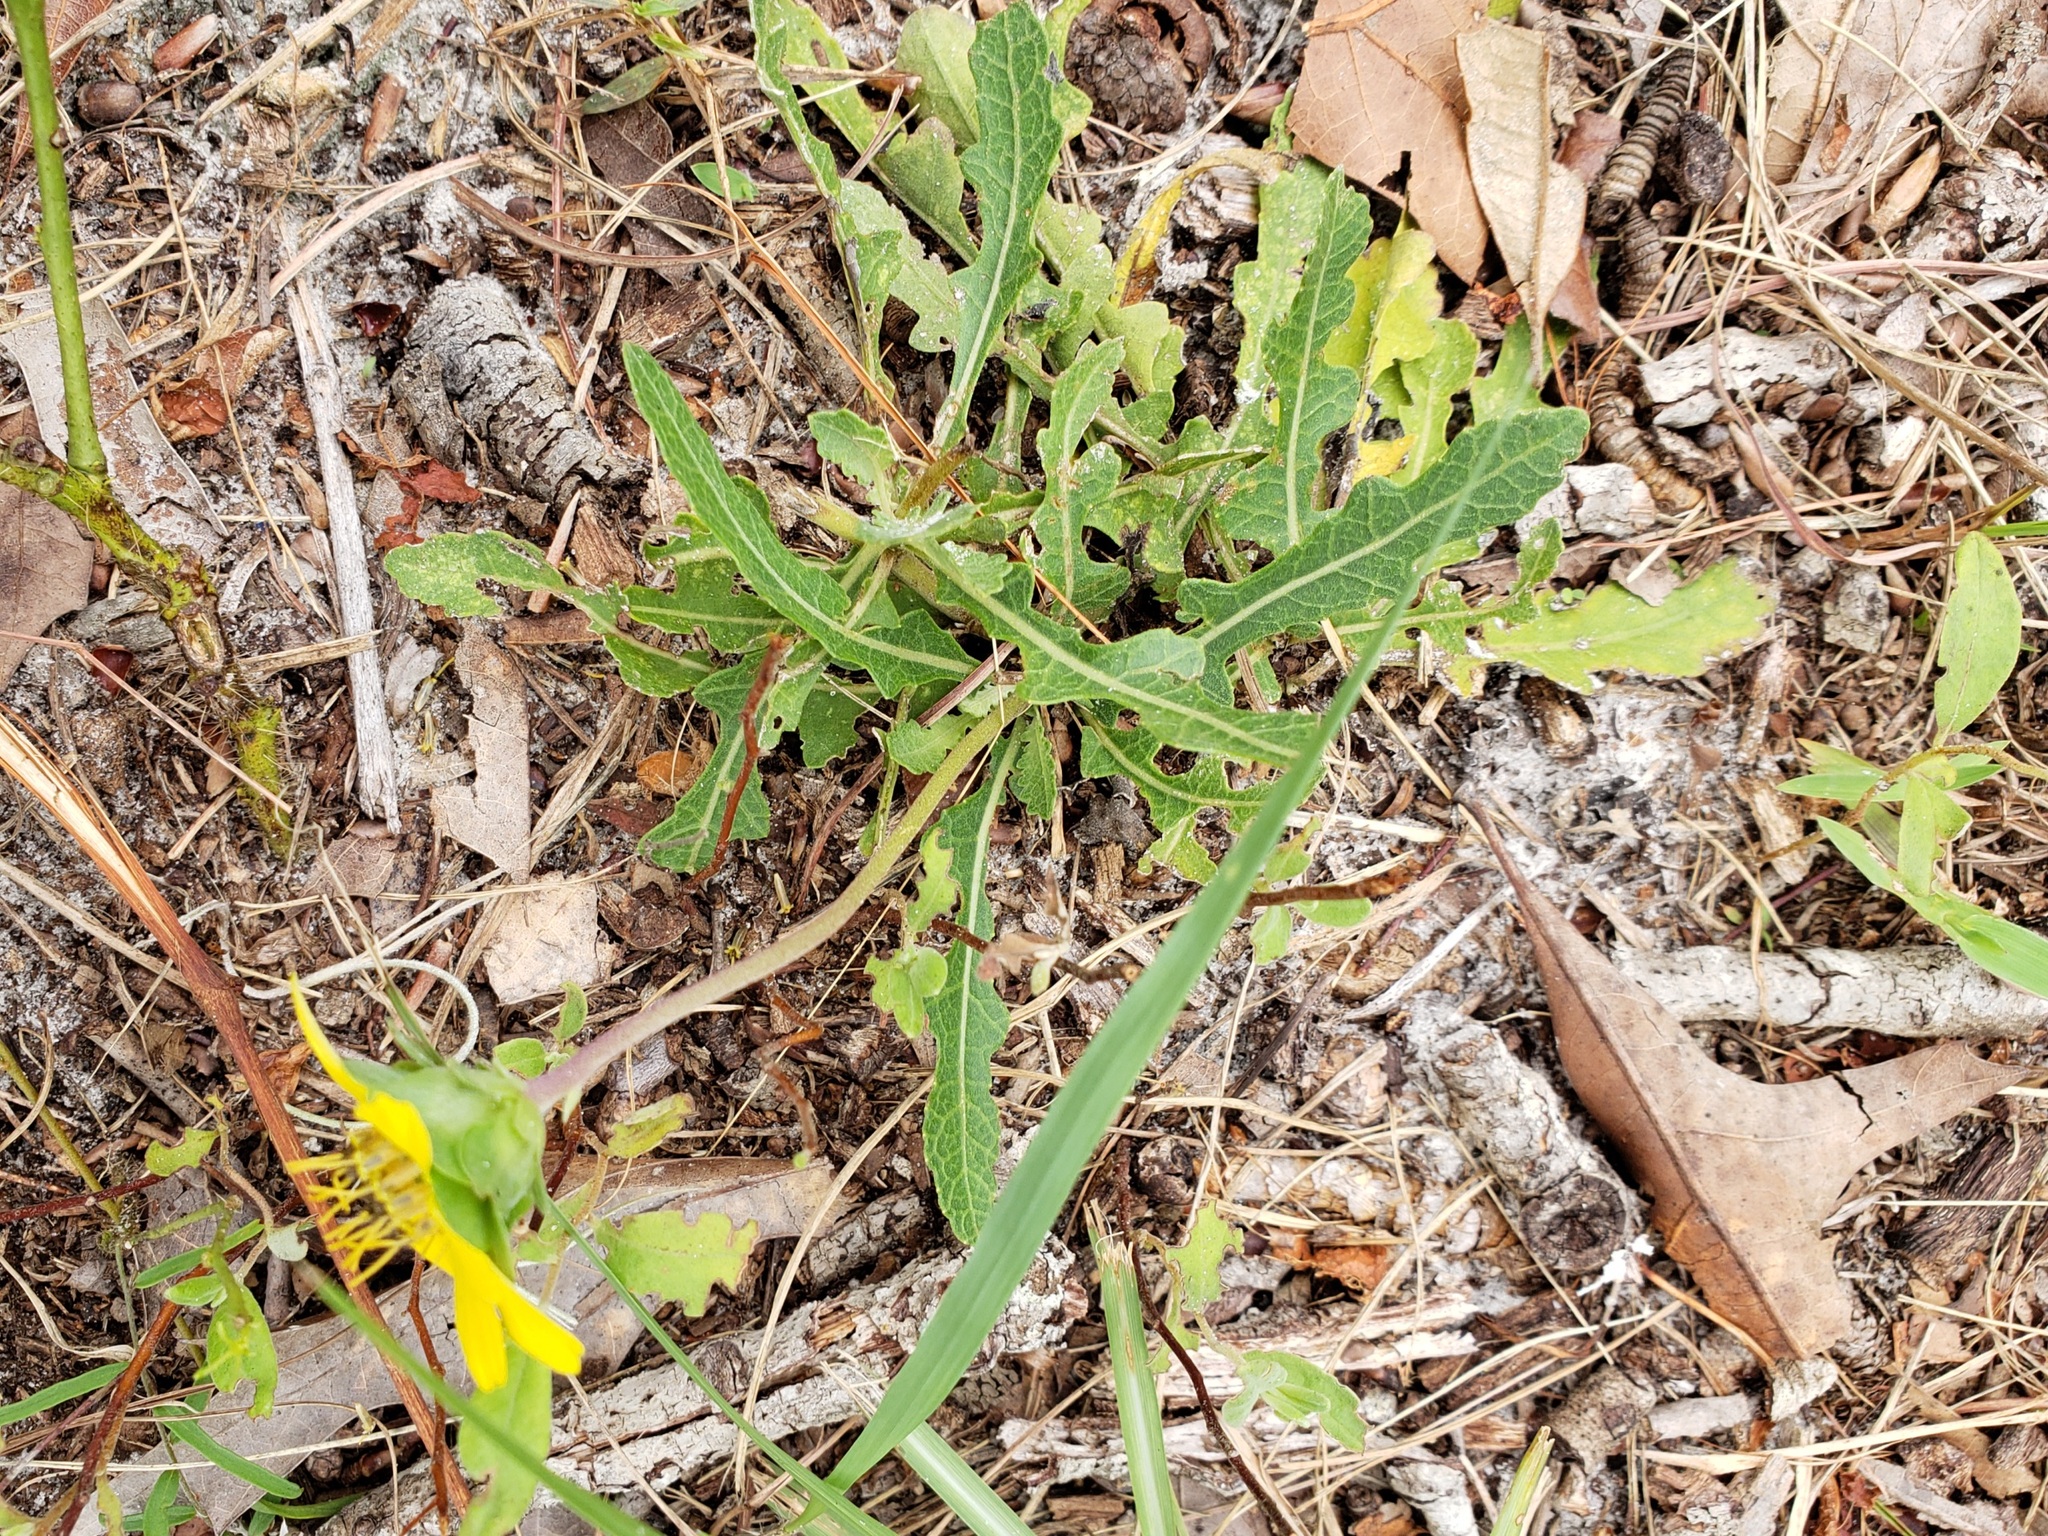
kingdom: Plantae
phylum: Tracheophyta
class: Magnoliopsida
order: Asterales
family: Asteraceae
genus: Berlandiera
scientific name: Berlandiera subacaulis
